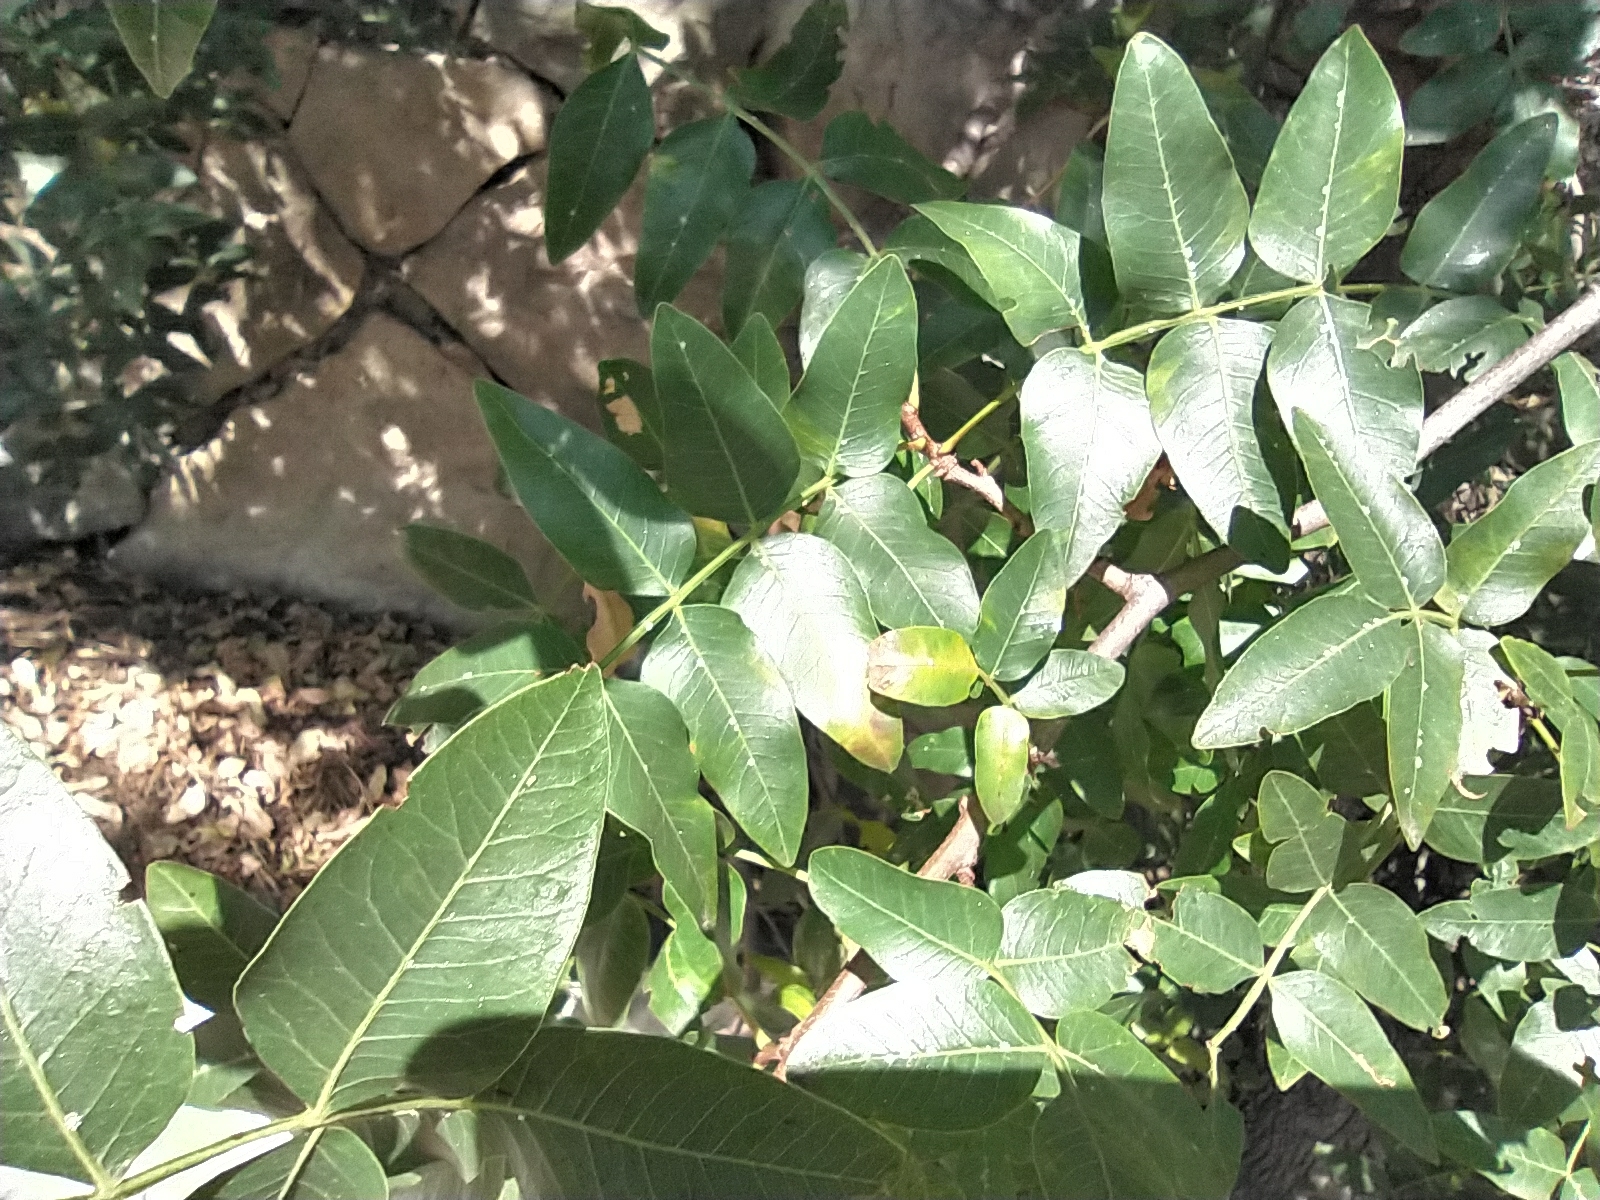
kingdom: Plantae
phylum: Tracheophyta
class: Magnoliopsida
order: Sapindales
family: Anacardiaceae
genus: Pistacia
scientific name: Pistacia atlantica
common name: Mt. atlas mastic tree
